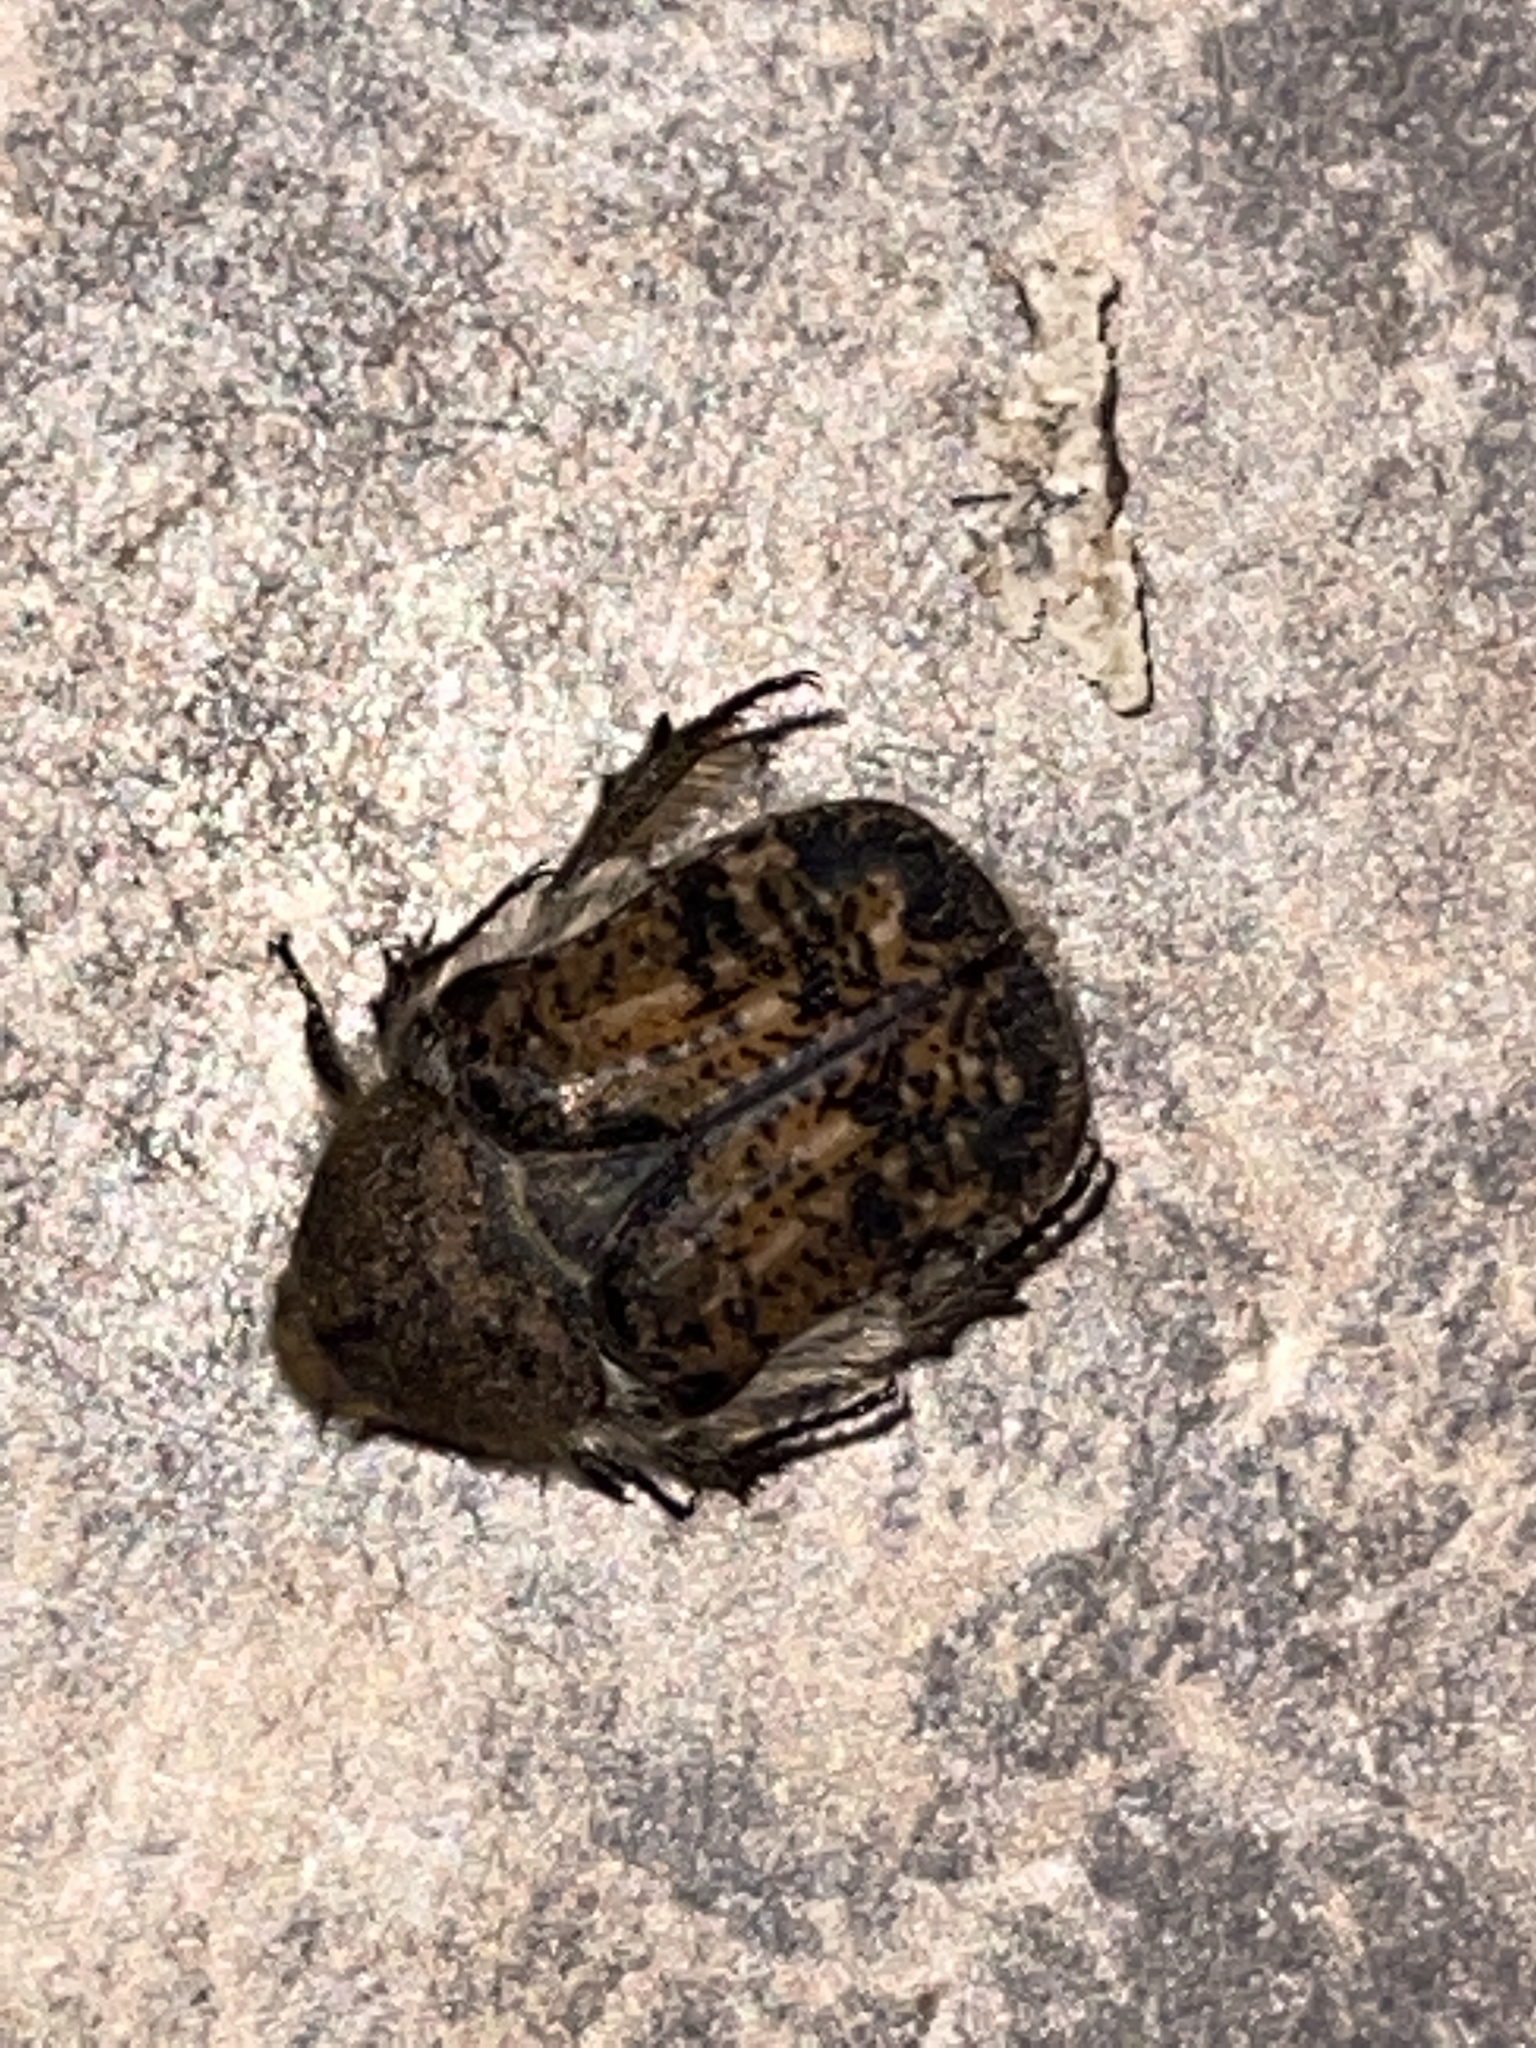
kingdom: Animalia
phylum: Arthropoda
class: Insecta
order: Coleoptera
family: Scarabaeidae
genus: Euphoria
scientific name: Euphoria inda
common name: Bumble flower beetle
